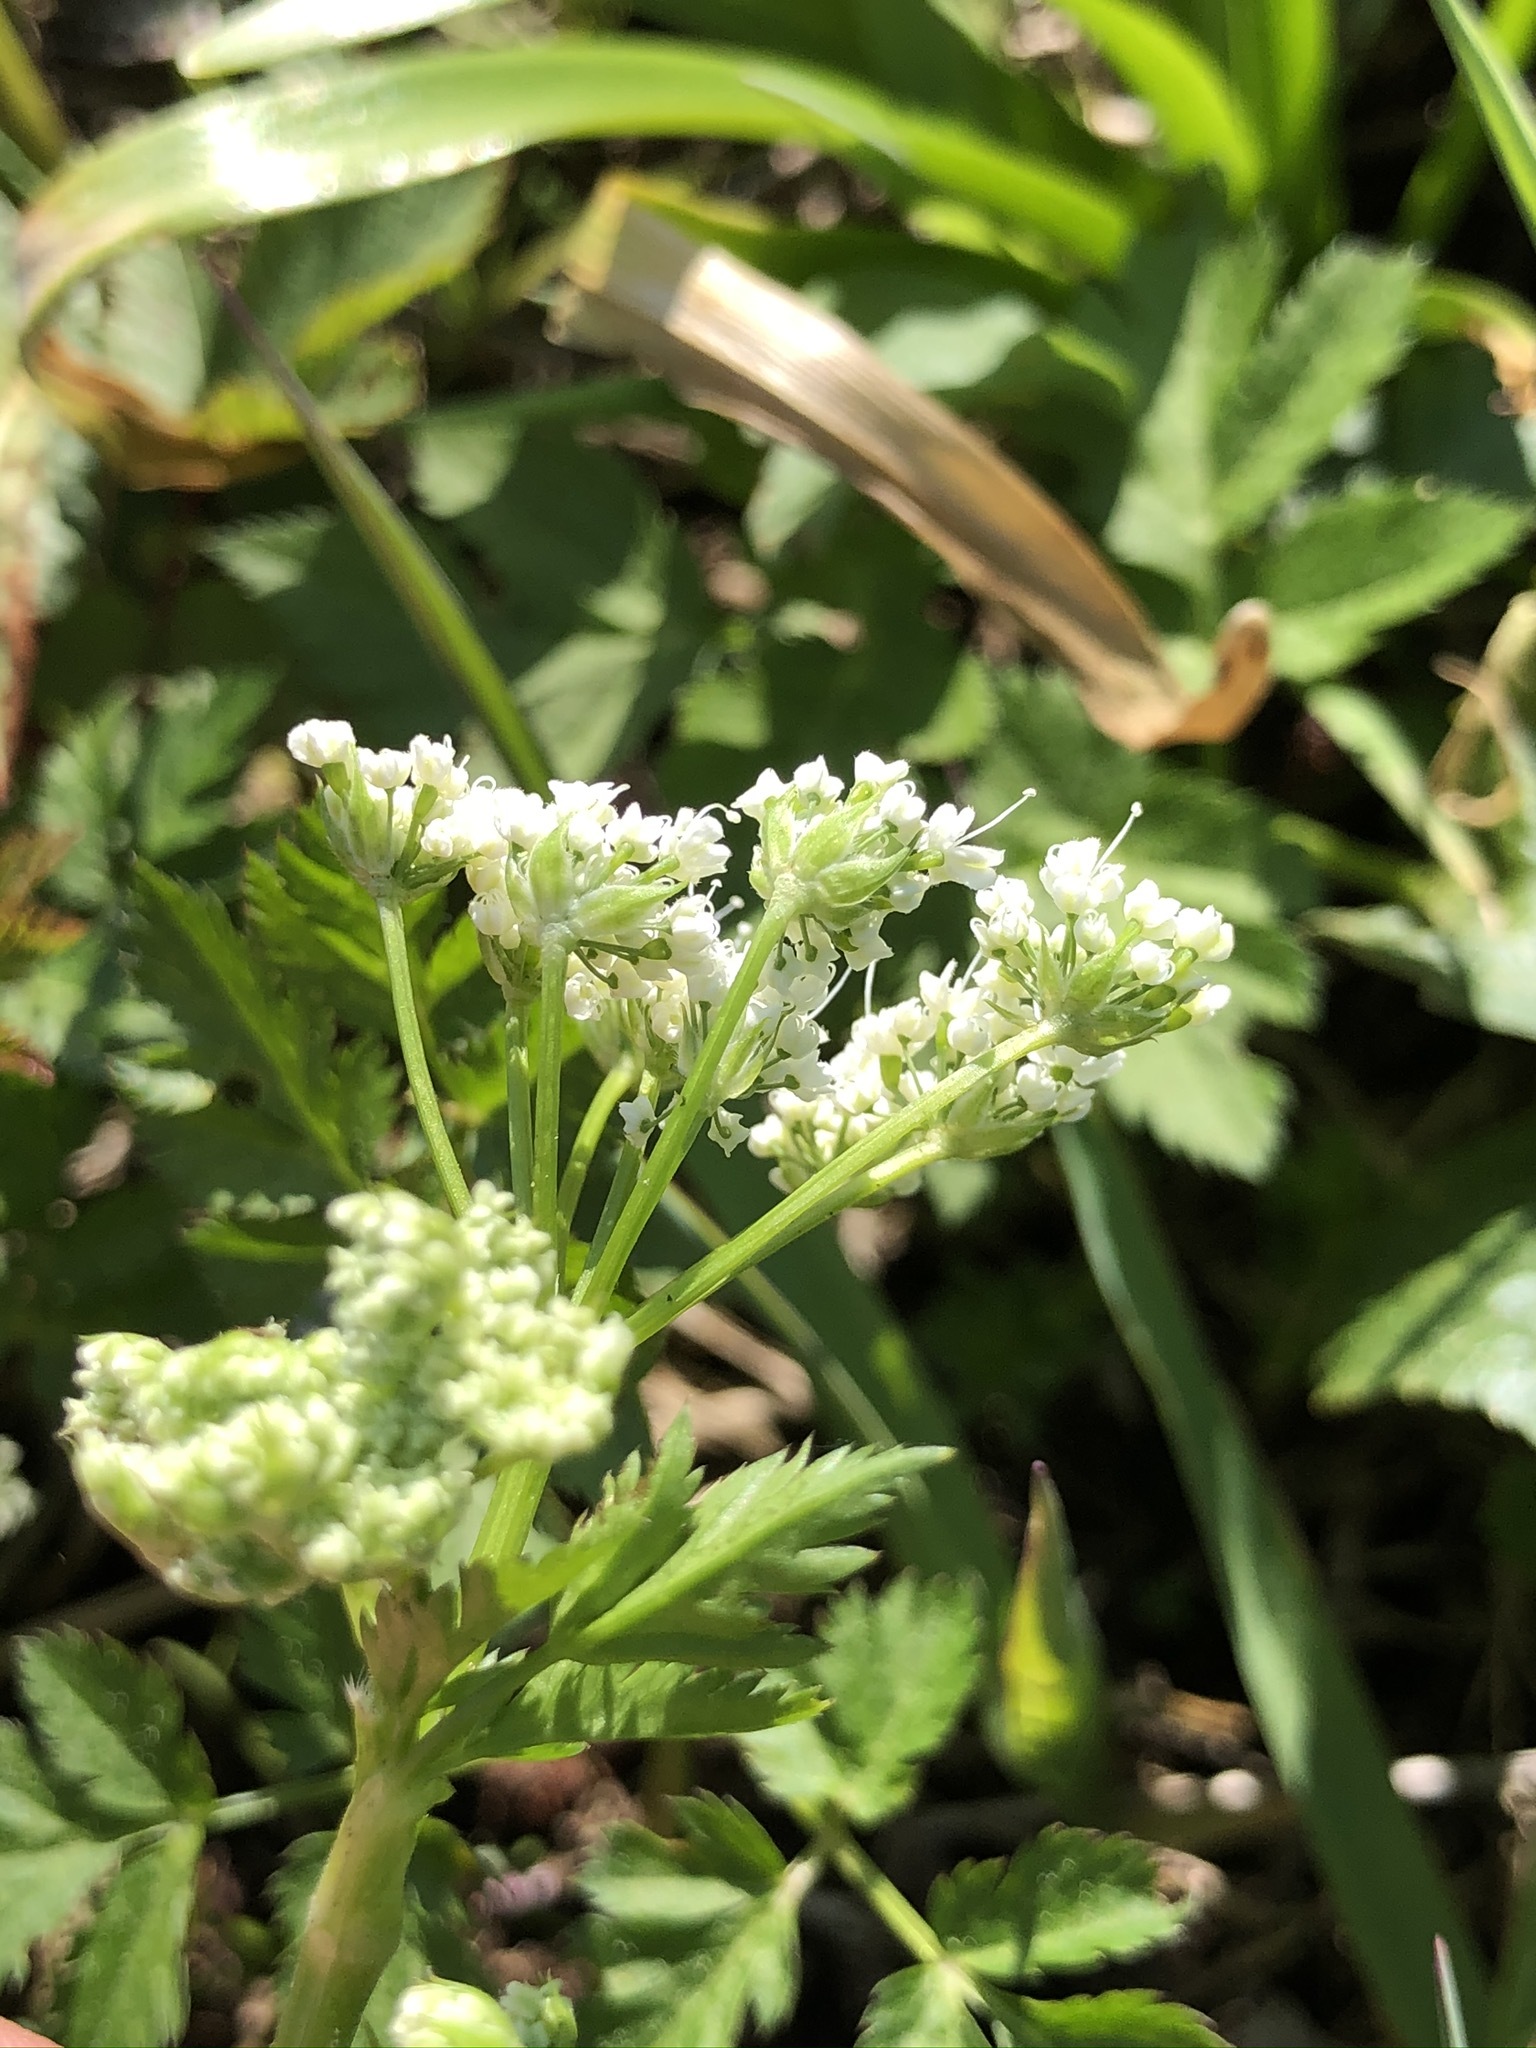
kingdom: Plantae
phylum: Tracheophyta
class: Magnoliopsida
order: Apiales
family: Apiaceae
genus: Anthriscus
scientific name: Anthriscus sylvestris
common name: Cow parsley
